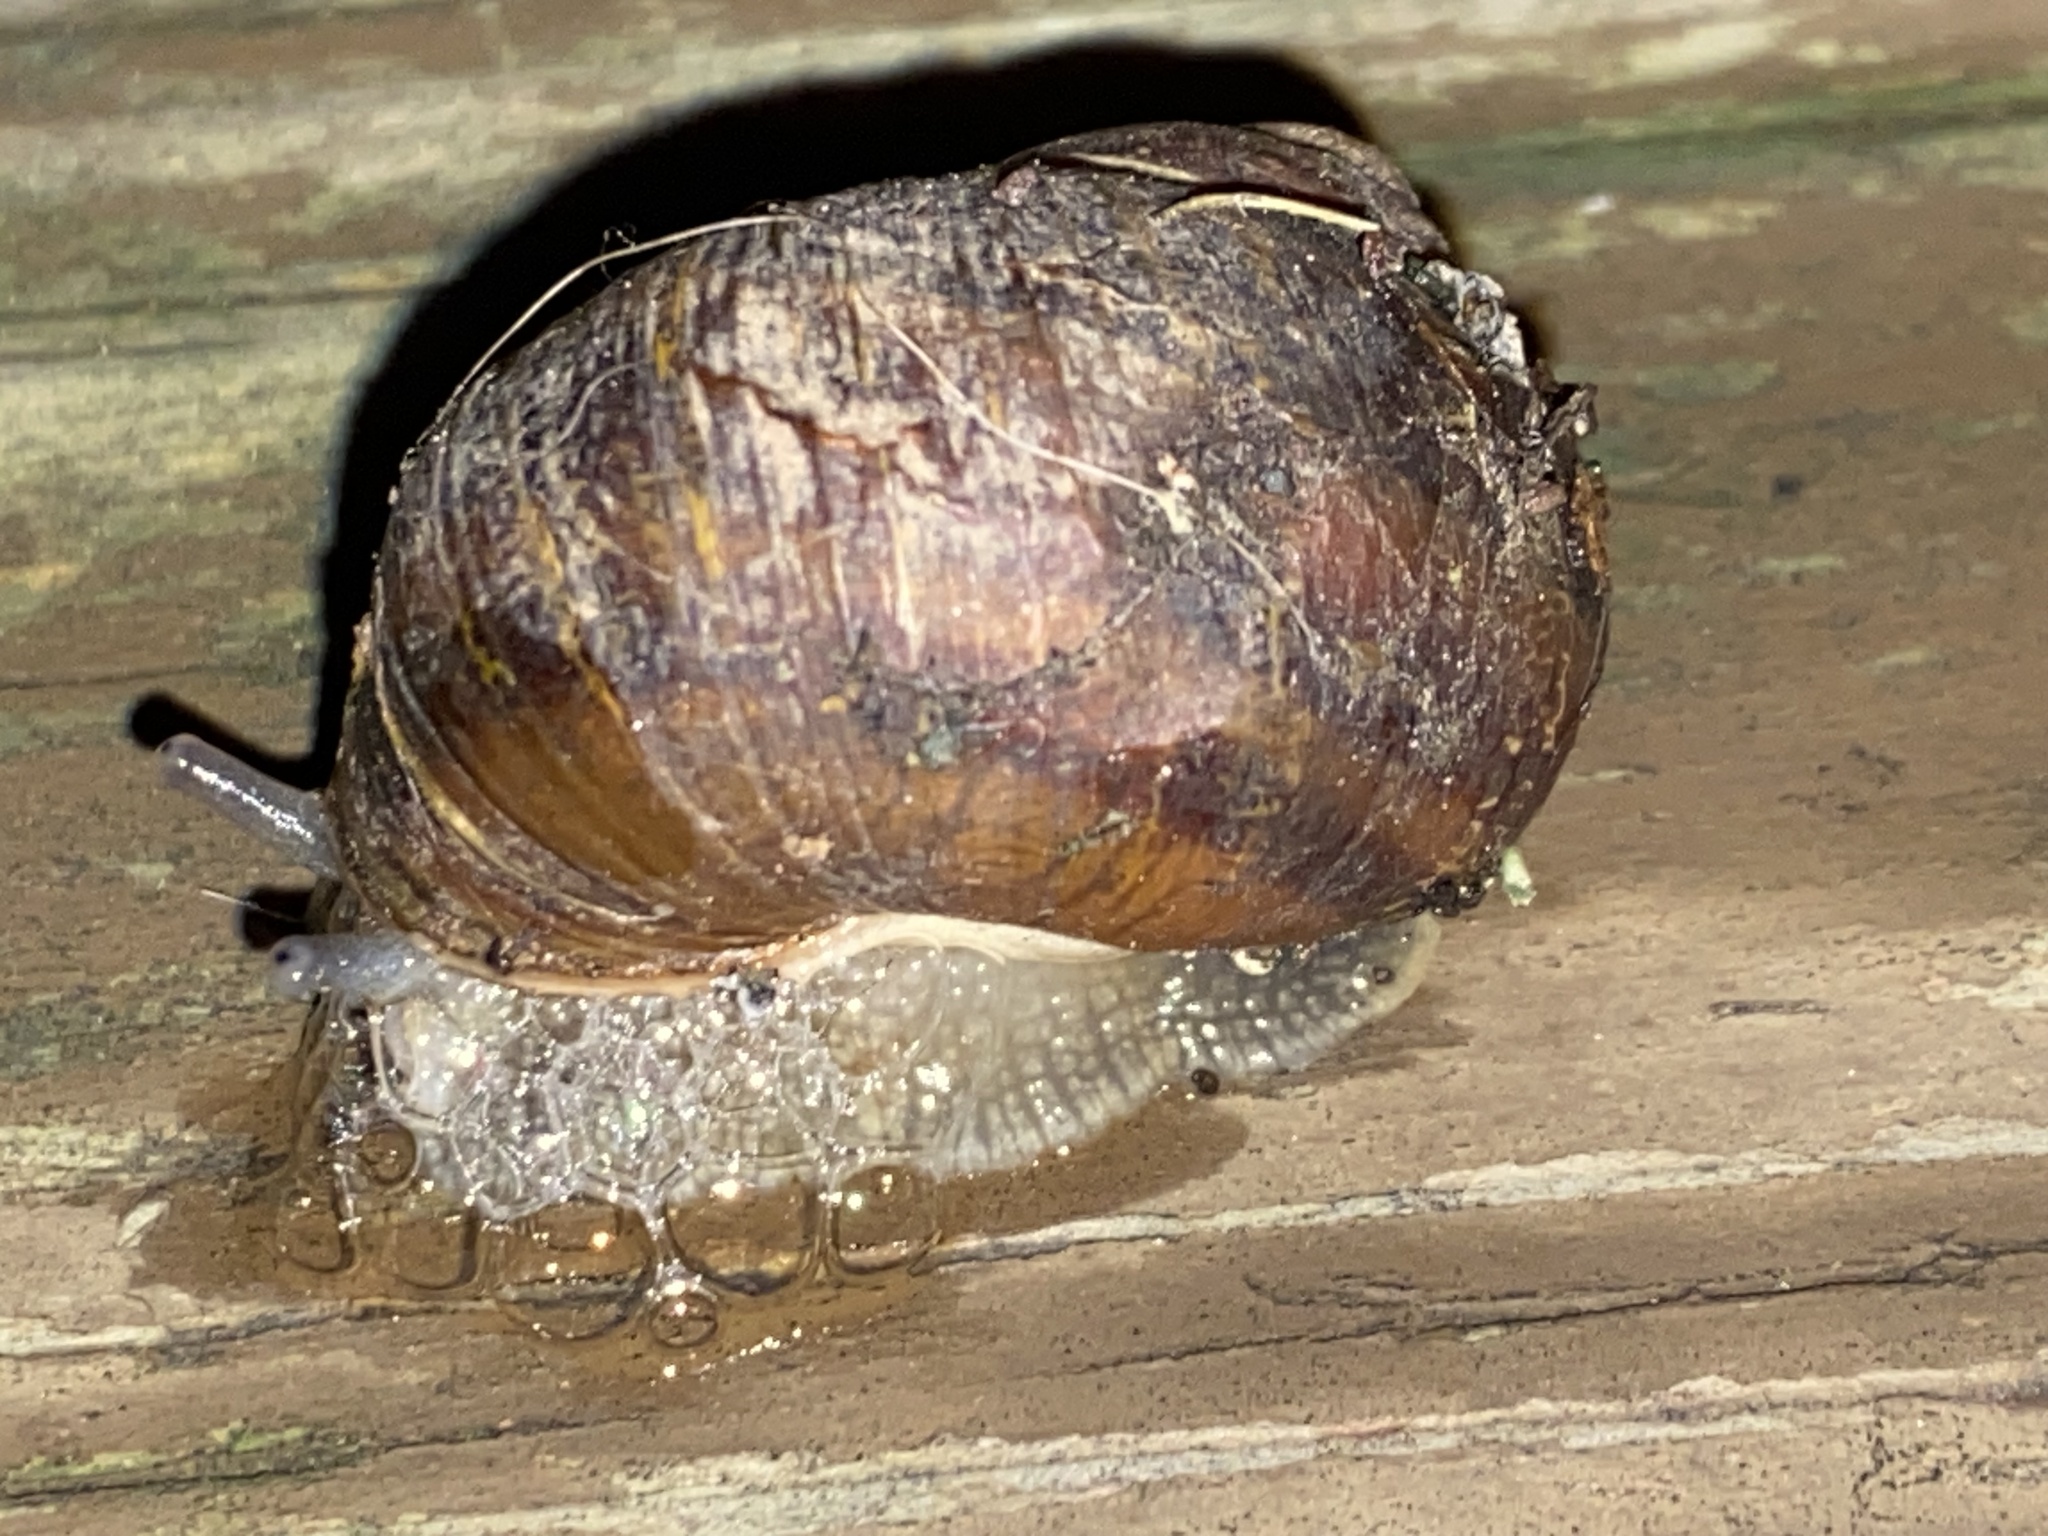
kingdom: Animalia
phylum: Mollusca
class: Gastropoda
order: Stylommatophora
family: Helicidae
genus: Cornu
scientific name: Cornu aspersum
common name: Brown garden snail
